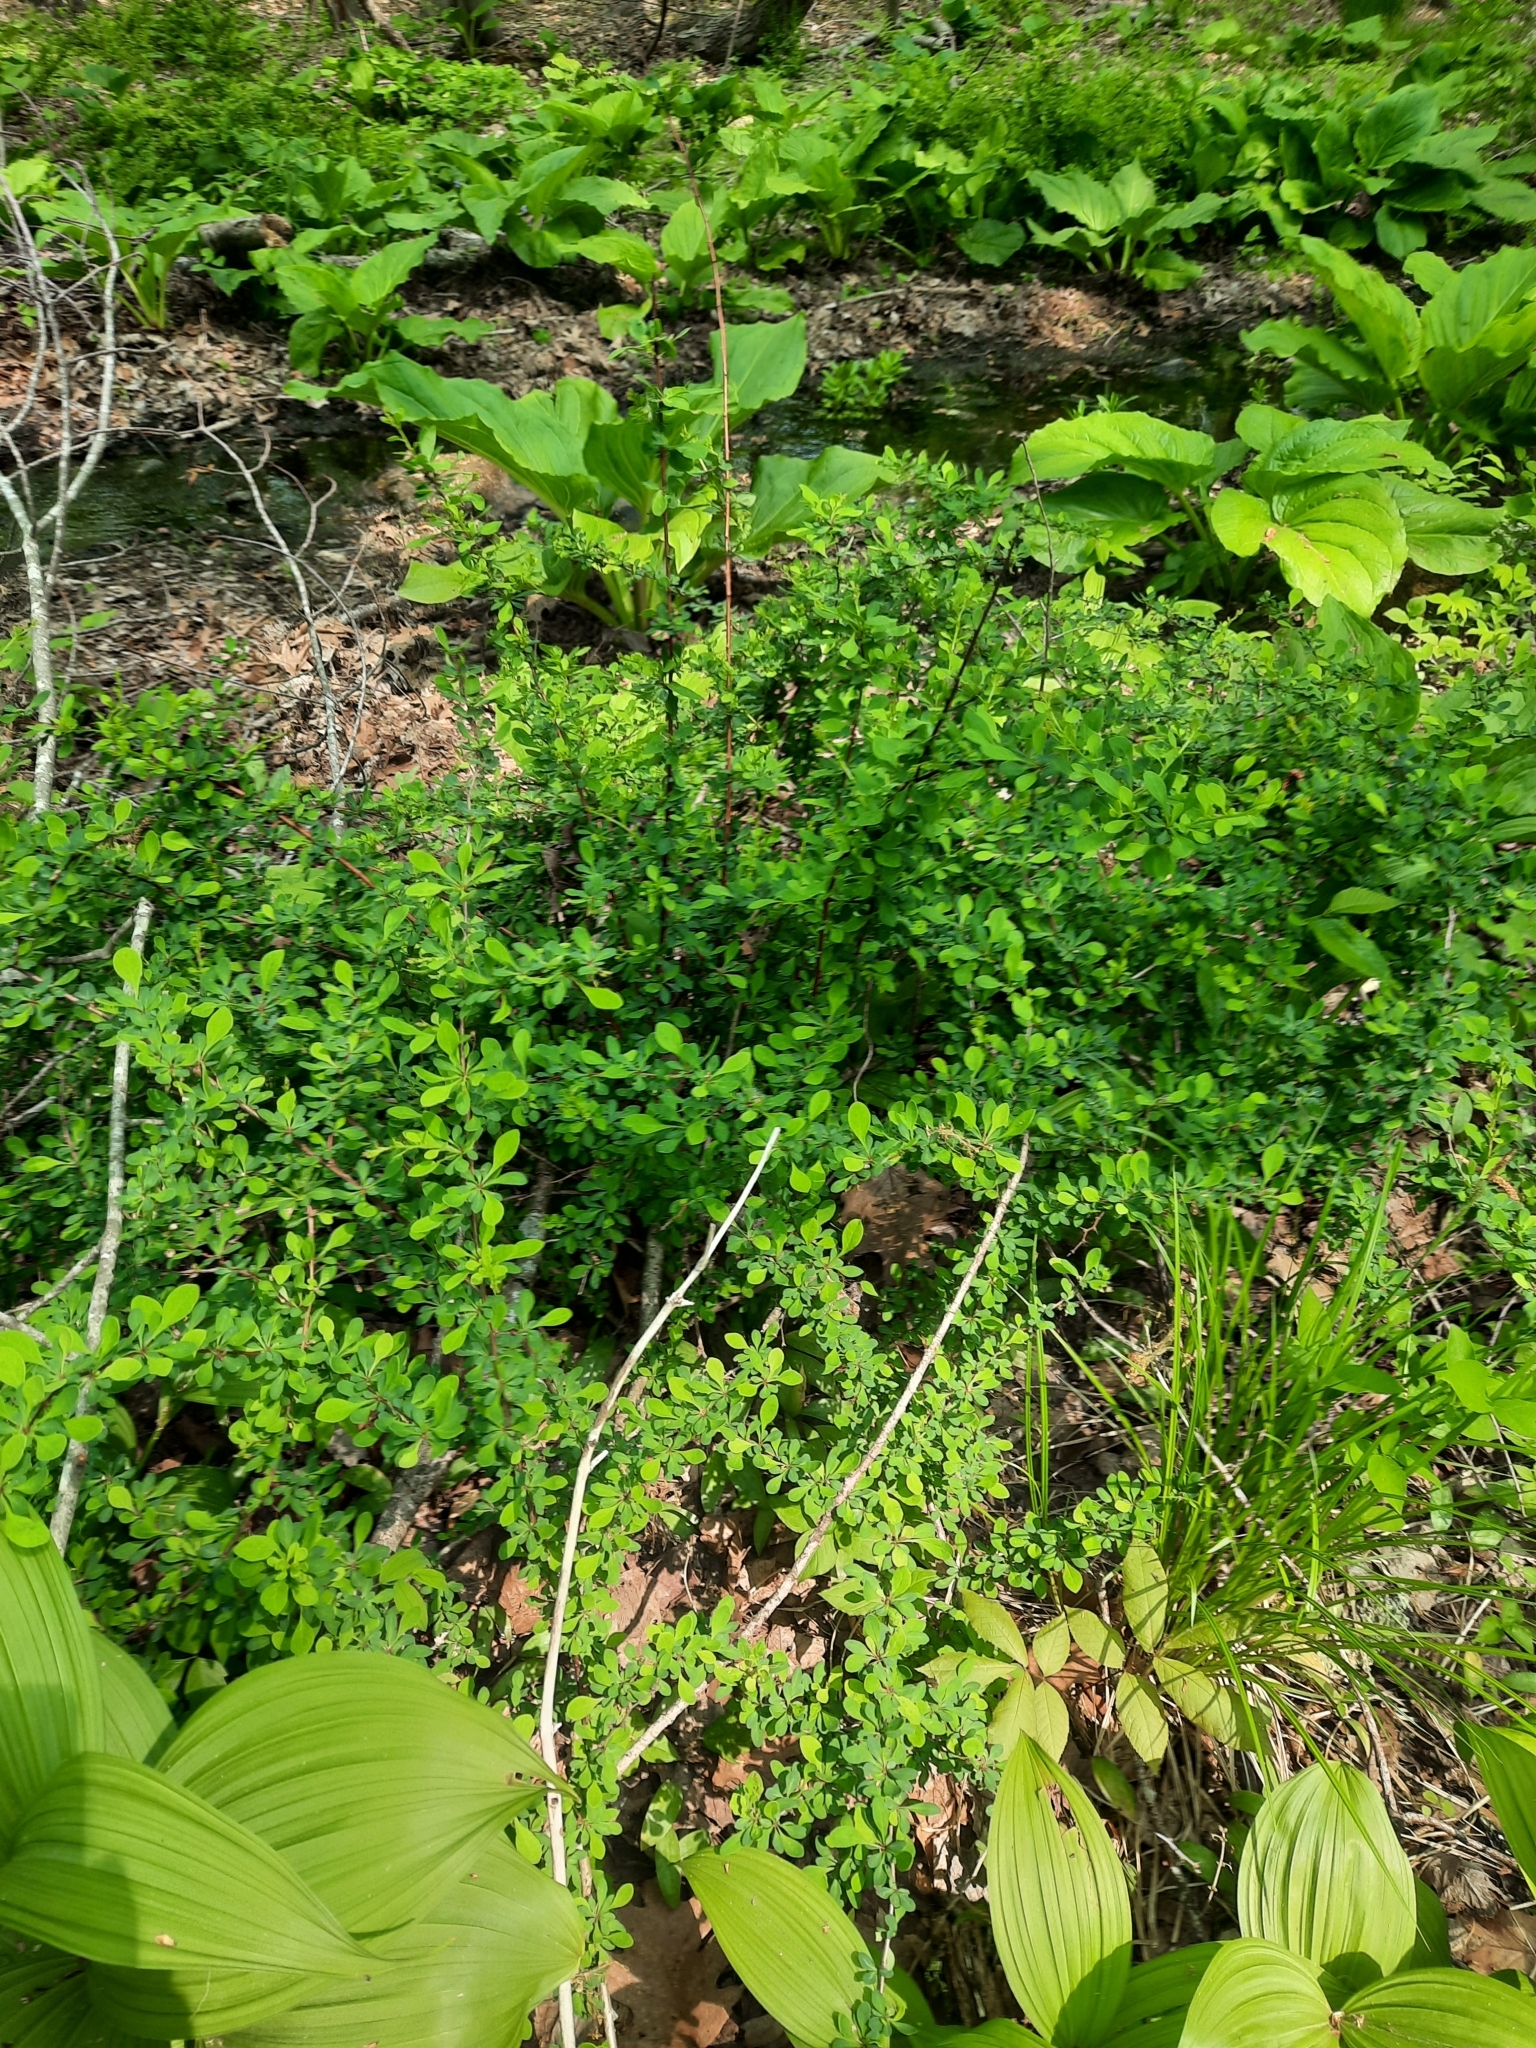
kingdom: Plantae
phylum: Tracheophyta
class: Magnoliopsida
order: Ranunculales
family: Berberidaceae
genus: Berberis
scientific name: Berberis thunbergii
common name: Japanese barberry
